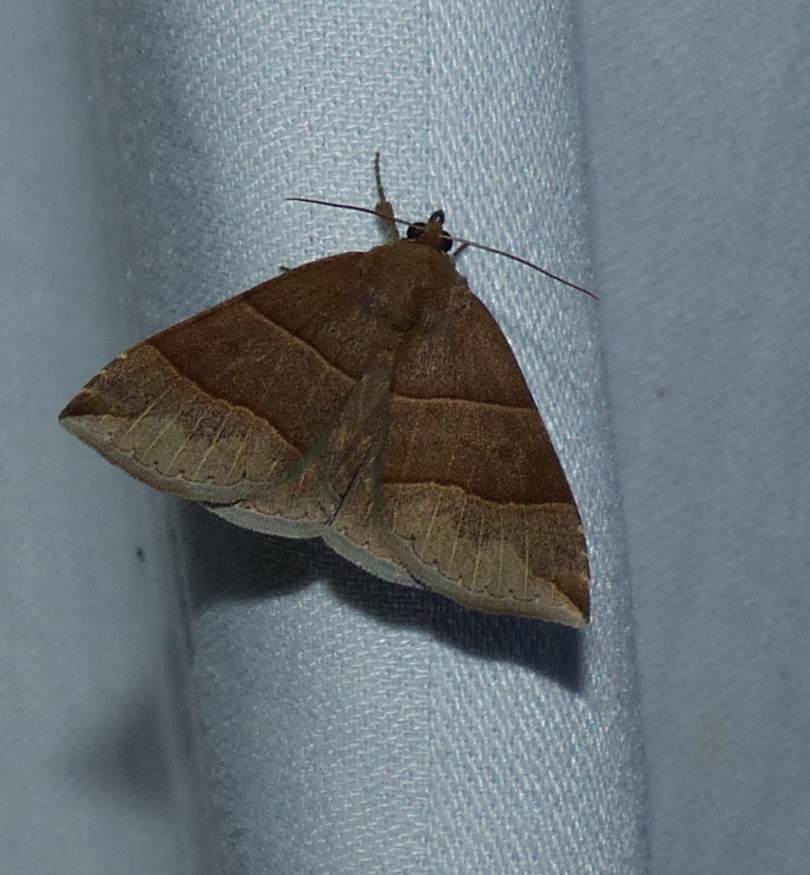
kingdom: Animalia
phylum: Arthropoda
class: Insecta
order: Lepidoptera
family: Erebidae
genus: Parallelia
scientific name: Parallelia bistriaris
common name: Maple looper moth
